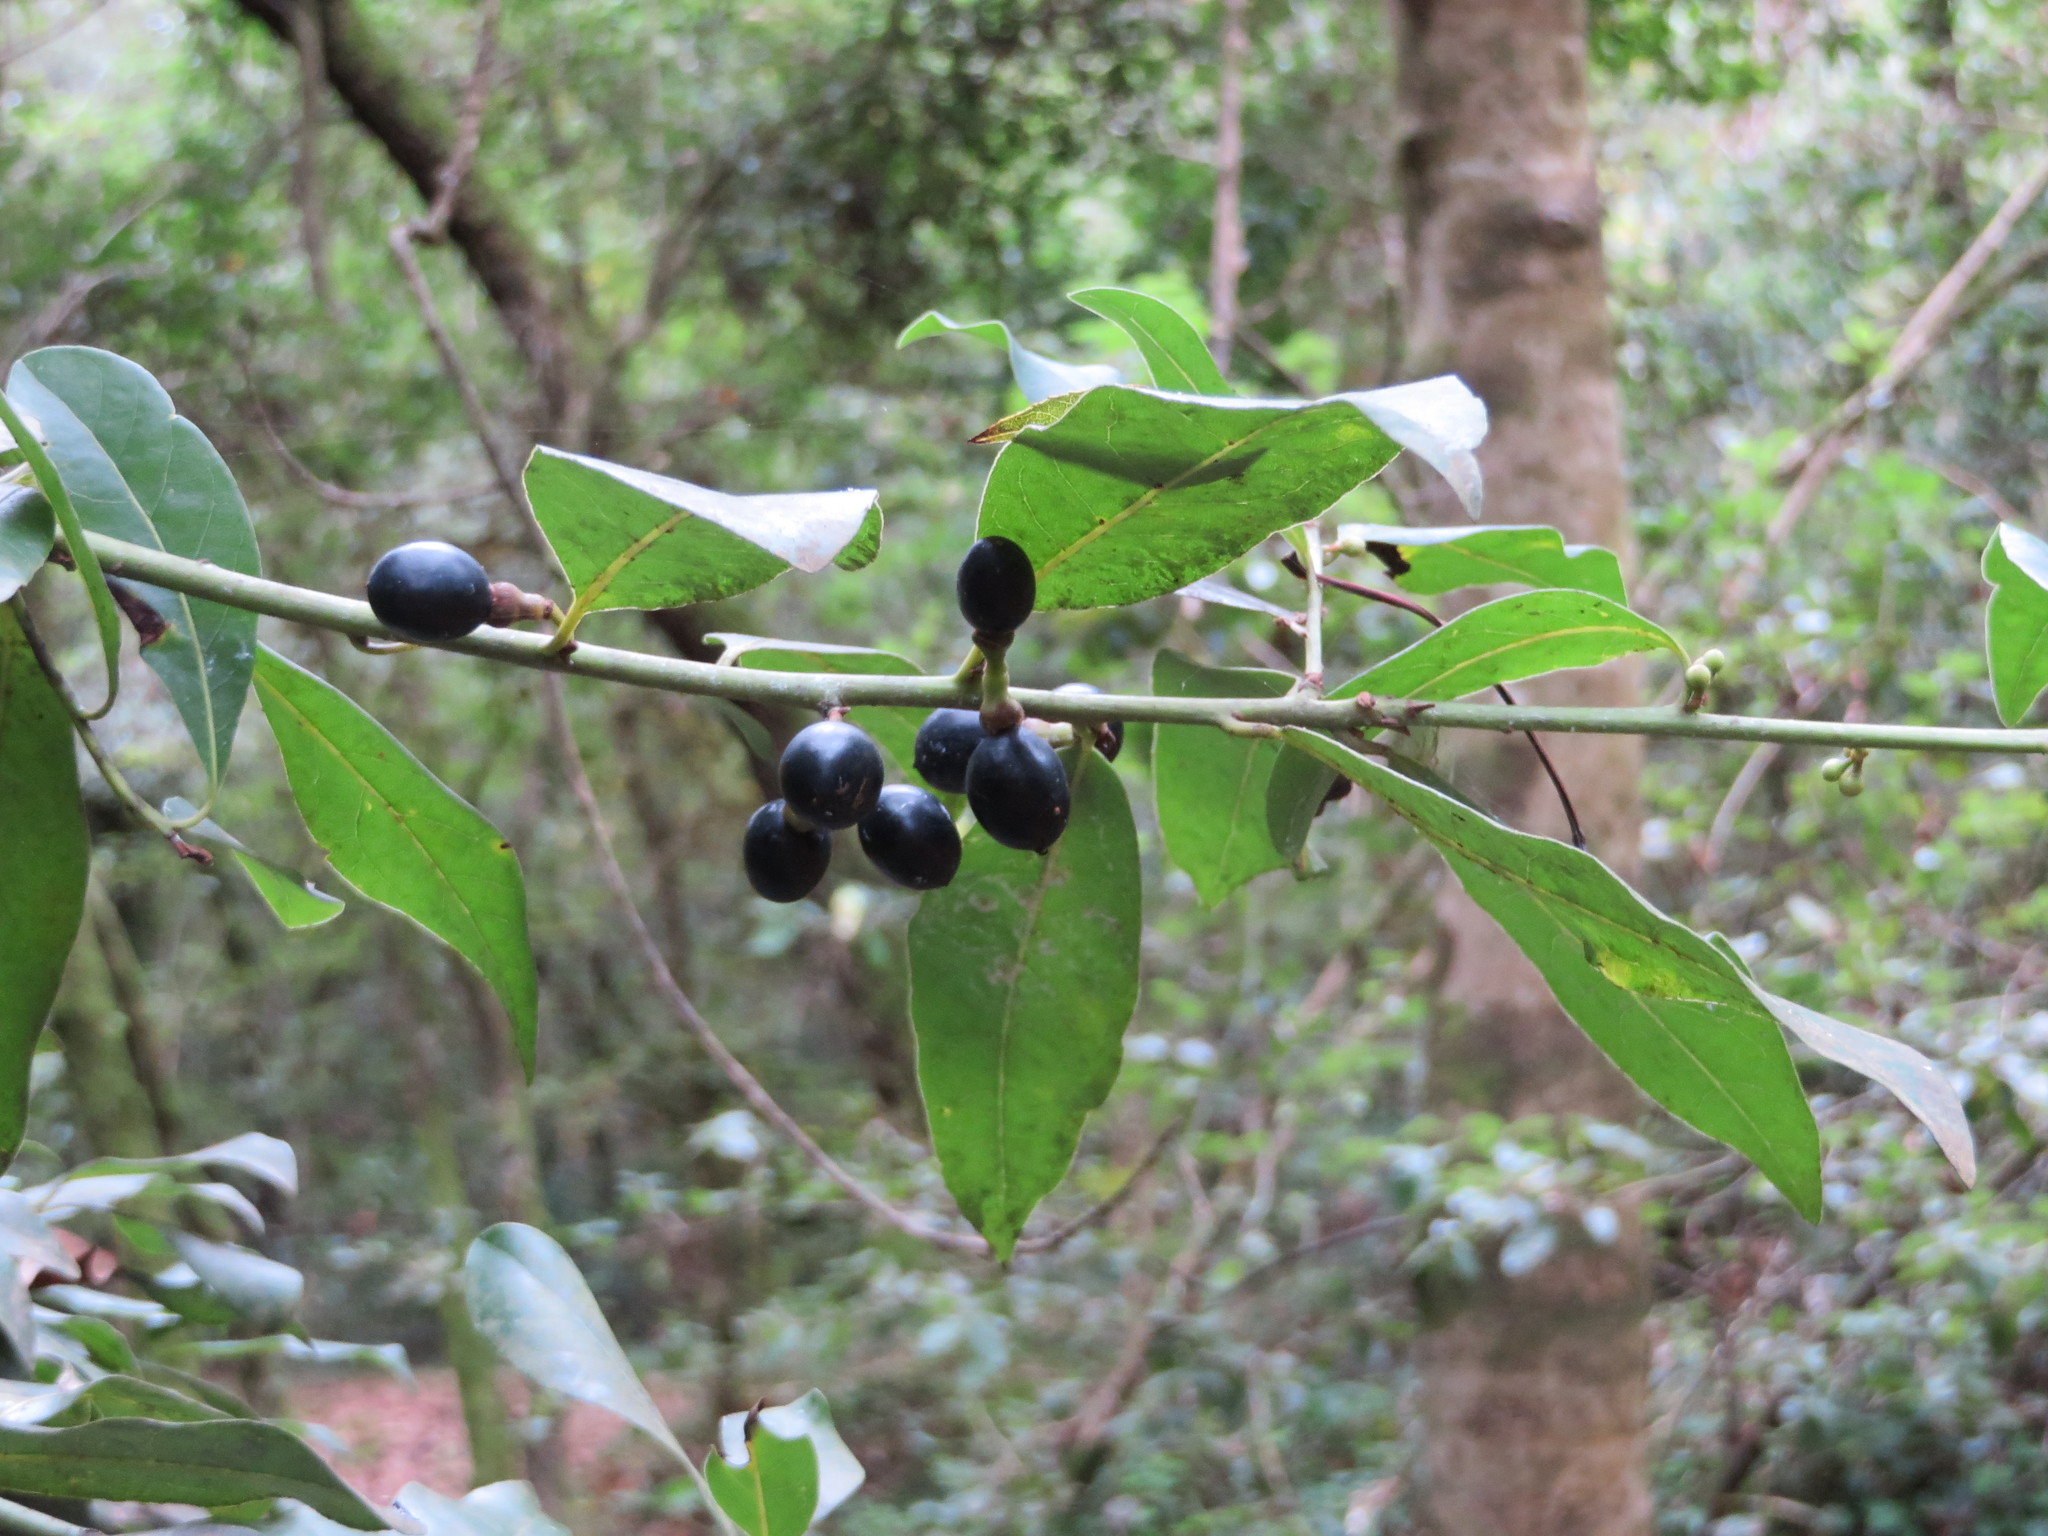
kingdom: Plantae
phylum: Tracheophyta
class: Magnoliopsida
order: Laurales
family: Lauraceae
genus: Laurus
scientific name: Laurus nobilis
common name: Bay
